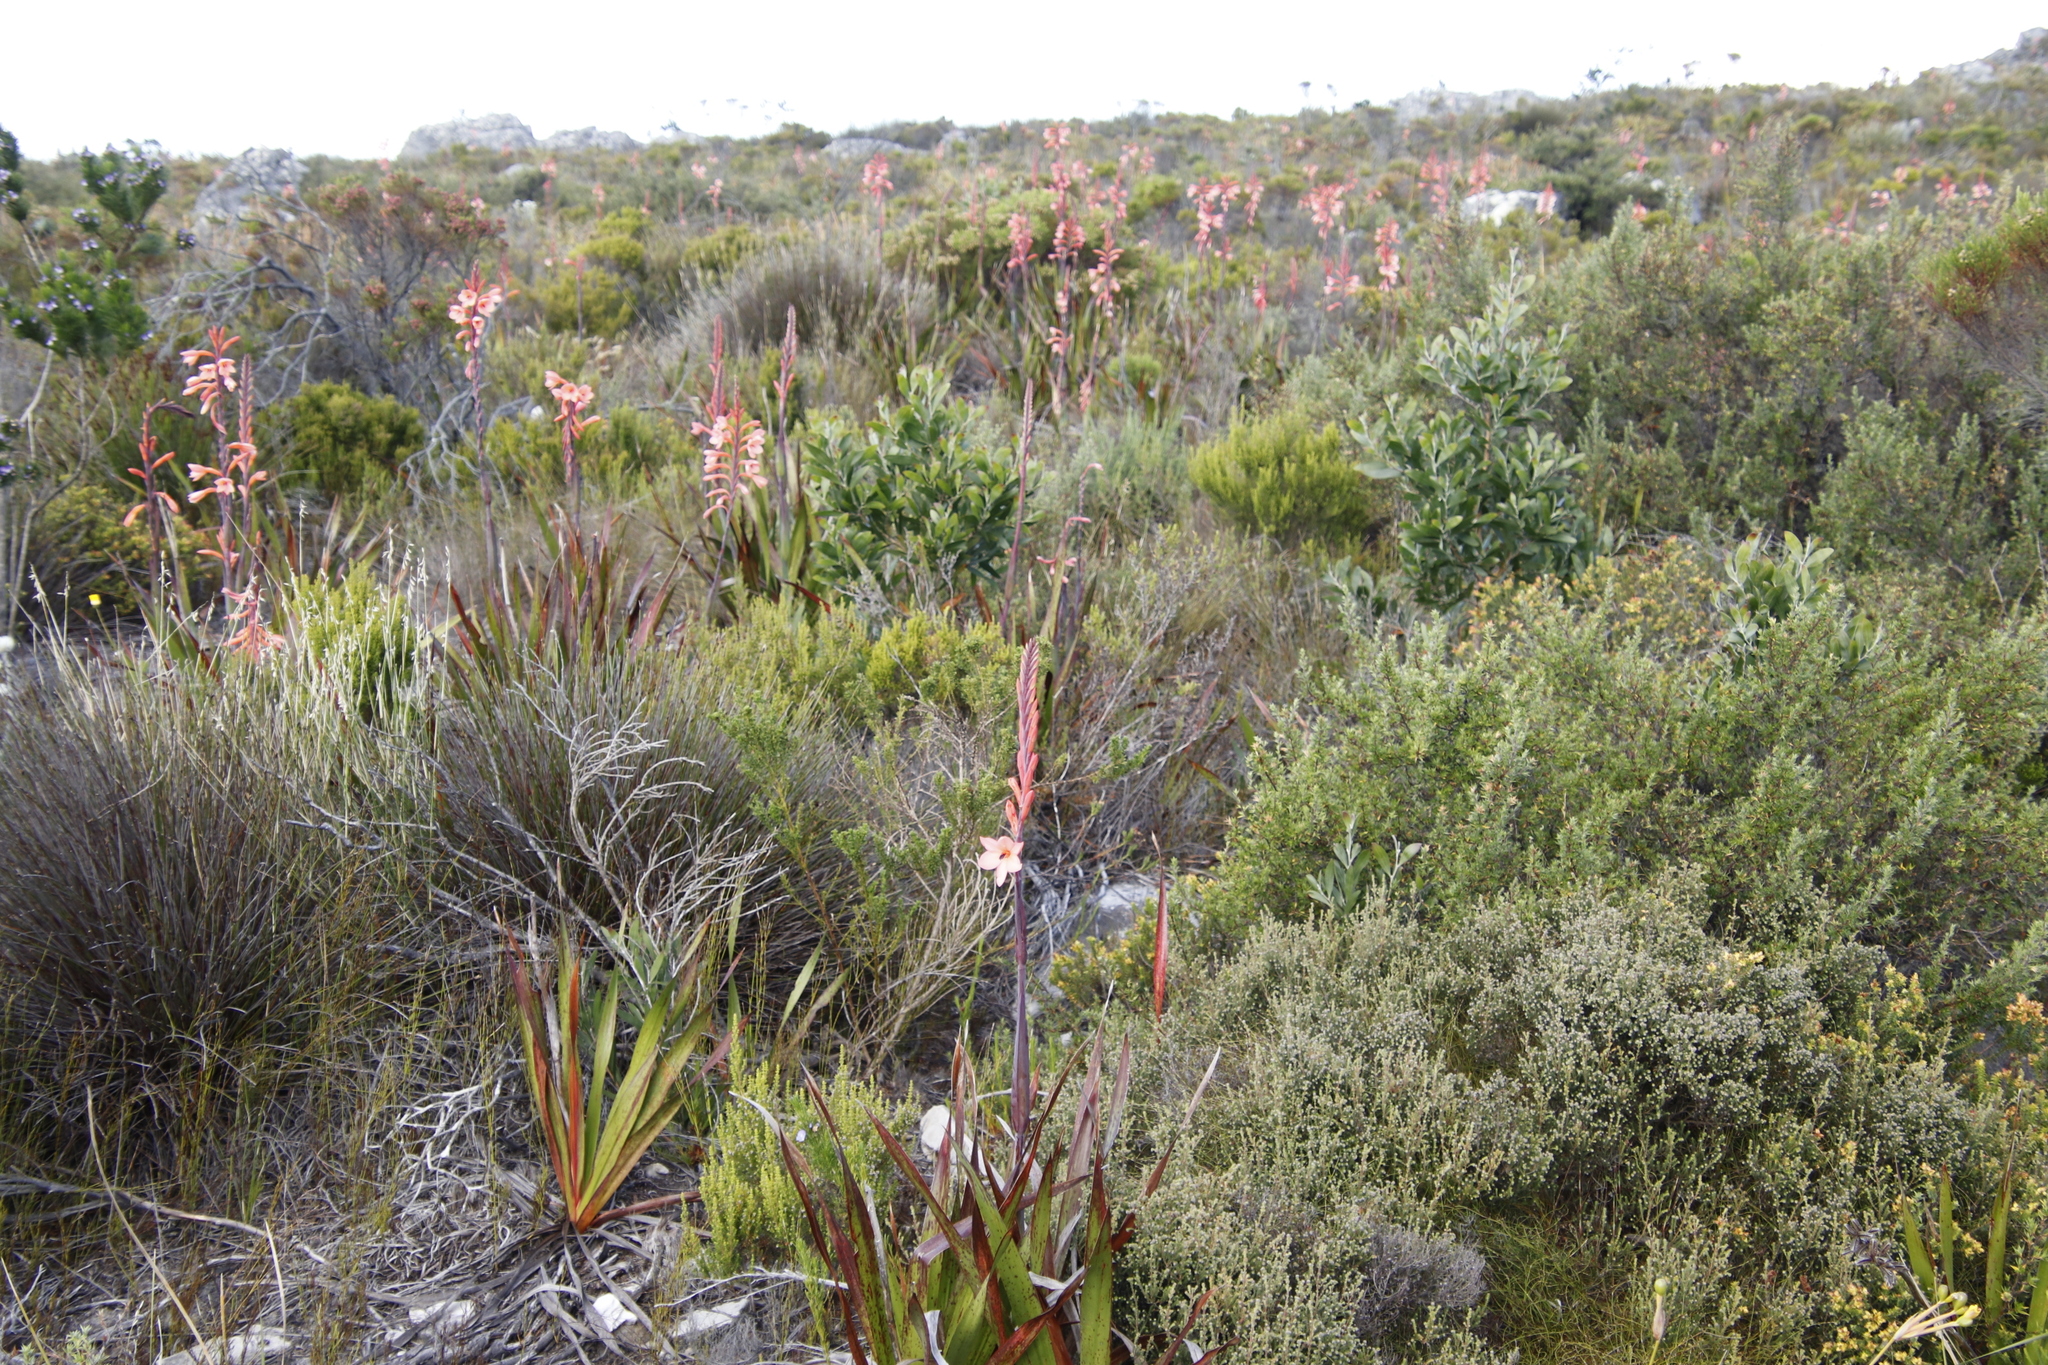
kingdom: Plantae
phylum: Tracheophyta
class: Liliopsida
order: Asparagales
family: Iridaceae
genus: Watsonia
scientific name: Watsonia tabularis
